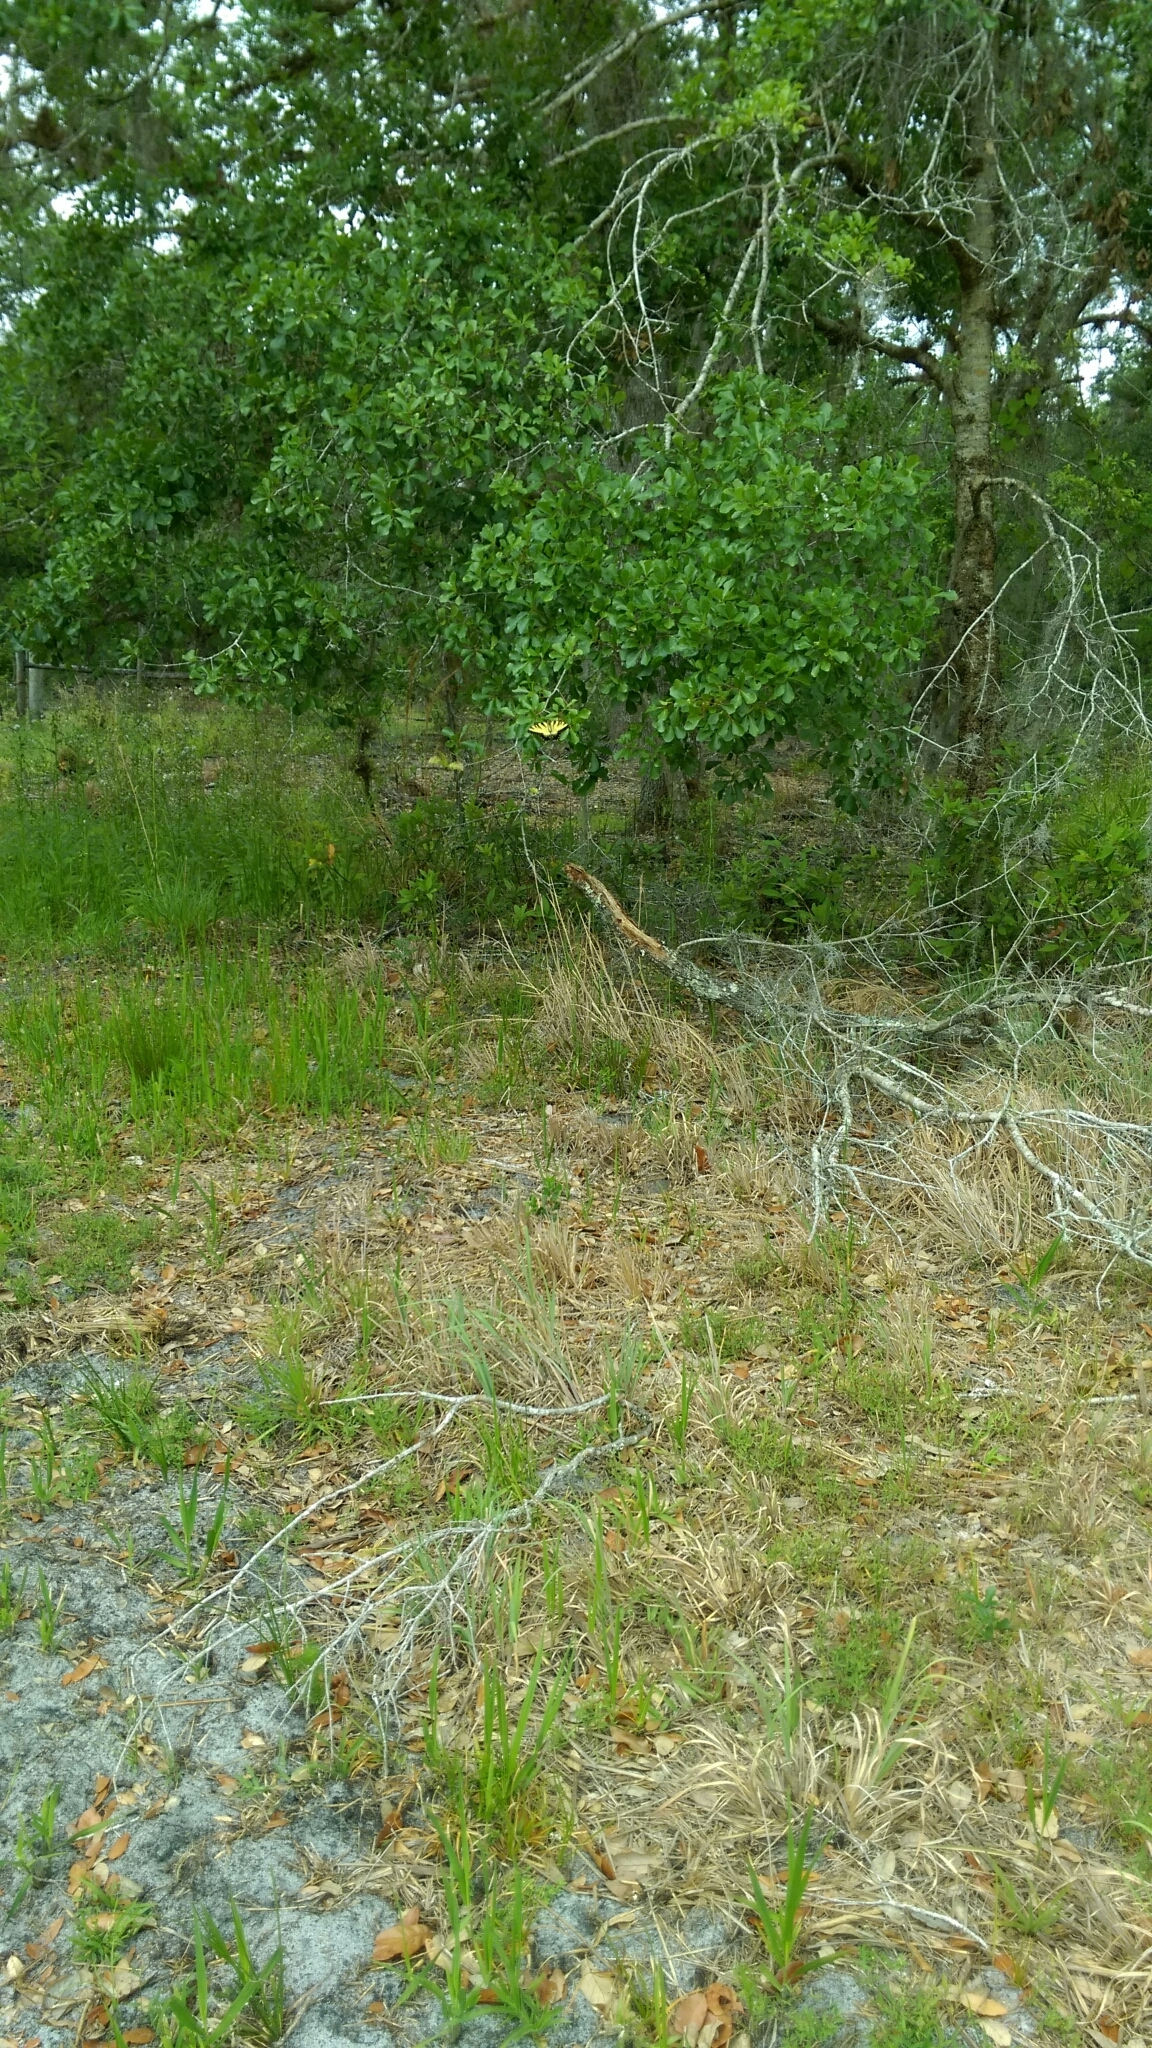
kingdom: Animalia
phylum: Arthropoda
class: Insecta
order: Lepidoptera
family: Papilionidae
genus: Papilio
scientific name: Papilio glaucus
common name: Tiger swallowtail
